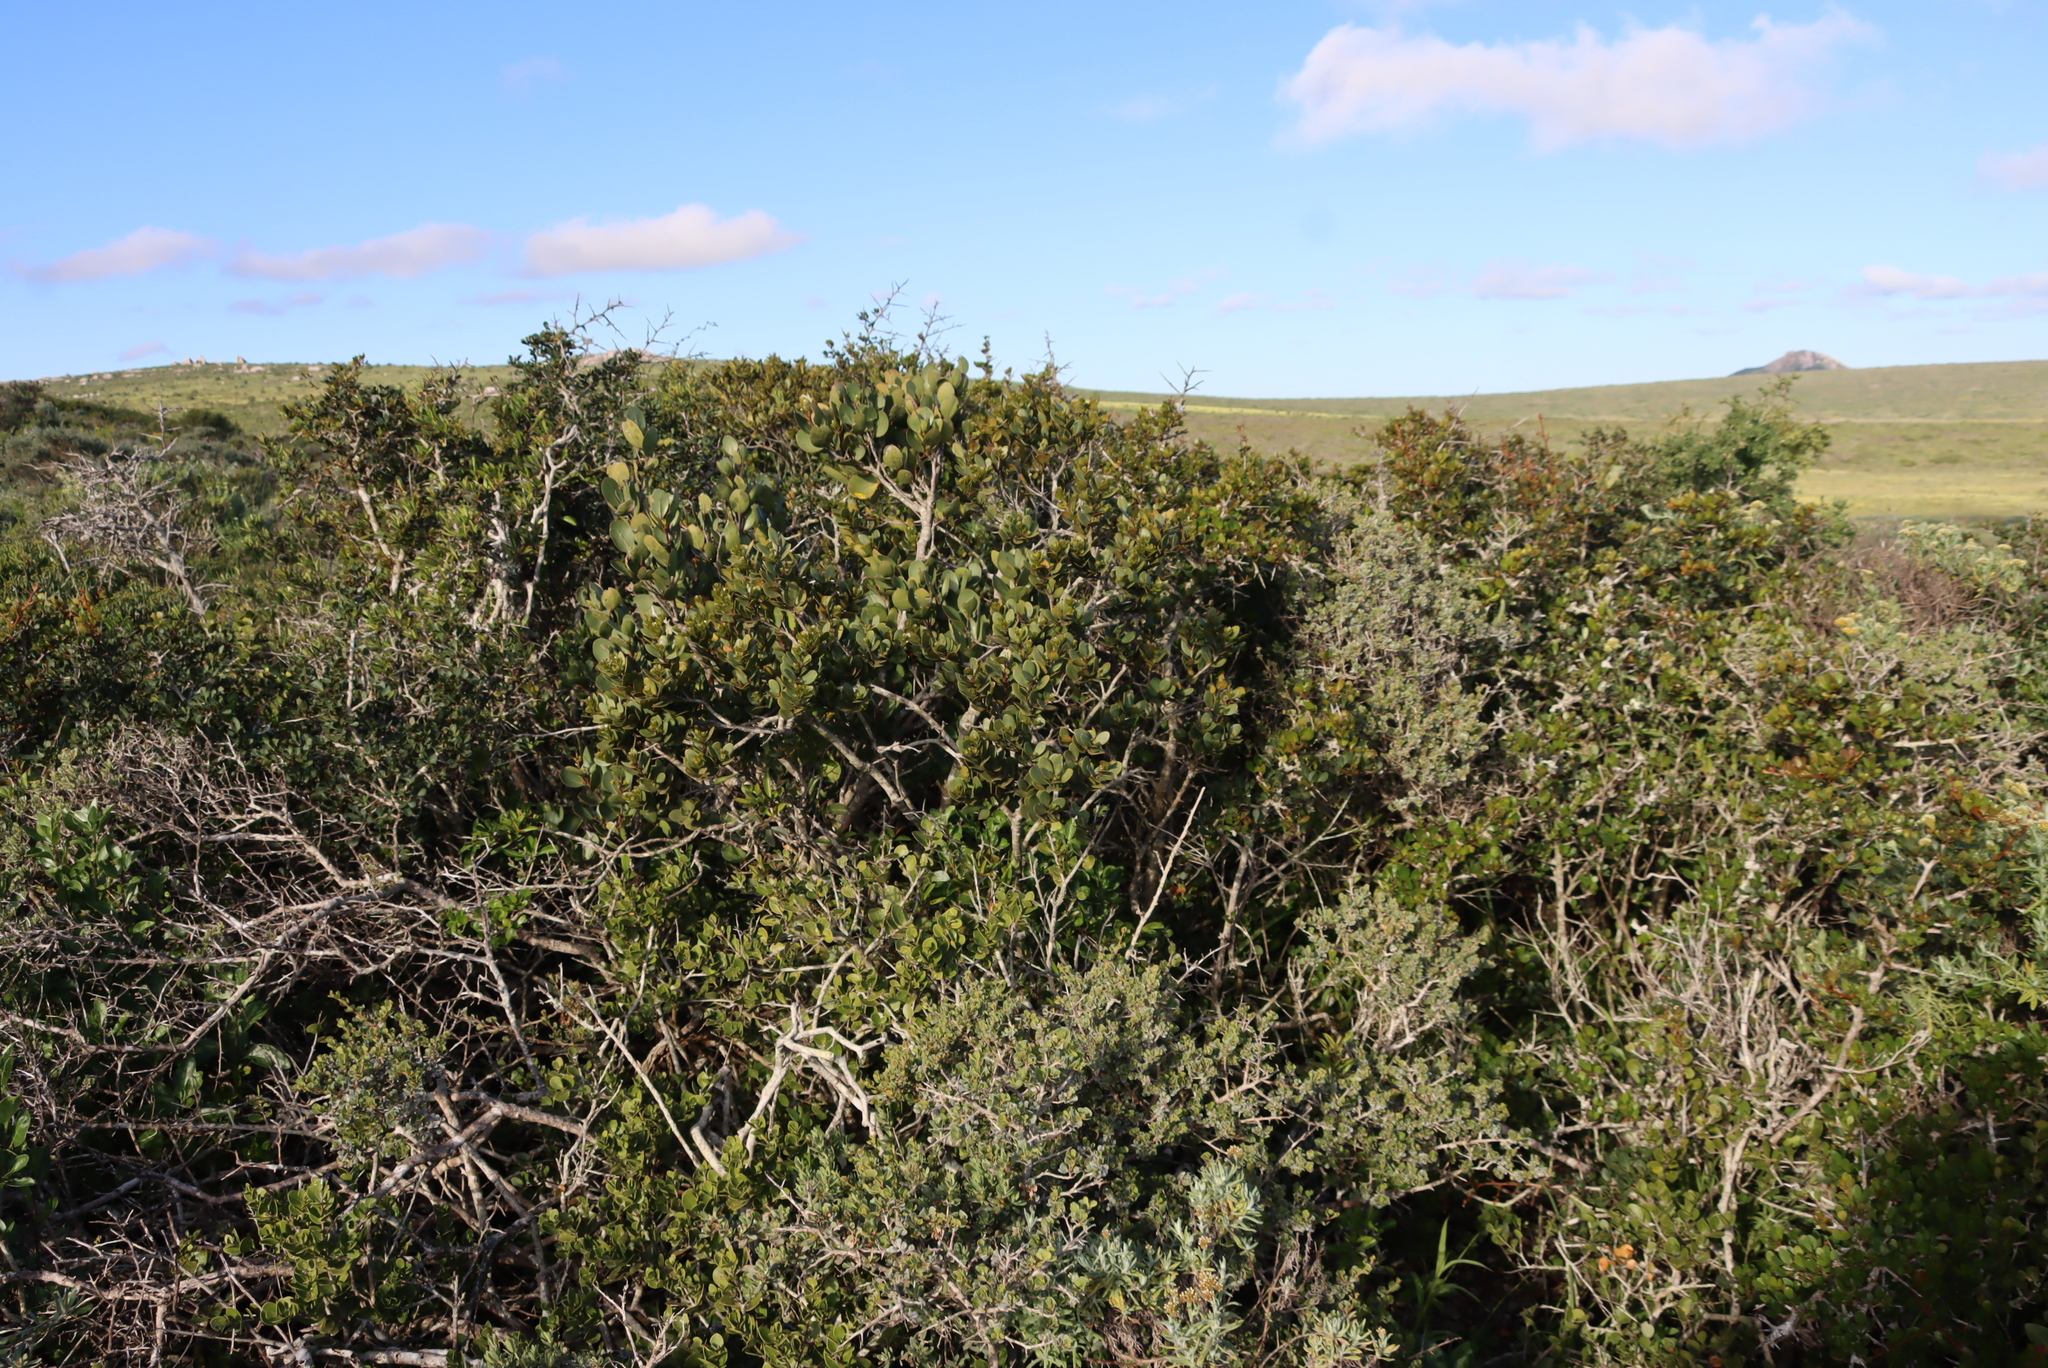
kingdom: Plantae
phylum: Tracheophyta
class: Magnoliopsida
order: Celastrales
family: Celastraceae
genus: Pterocelastrus
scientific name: Pterocelastrus tricuspidatus
